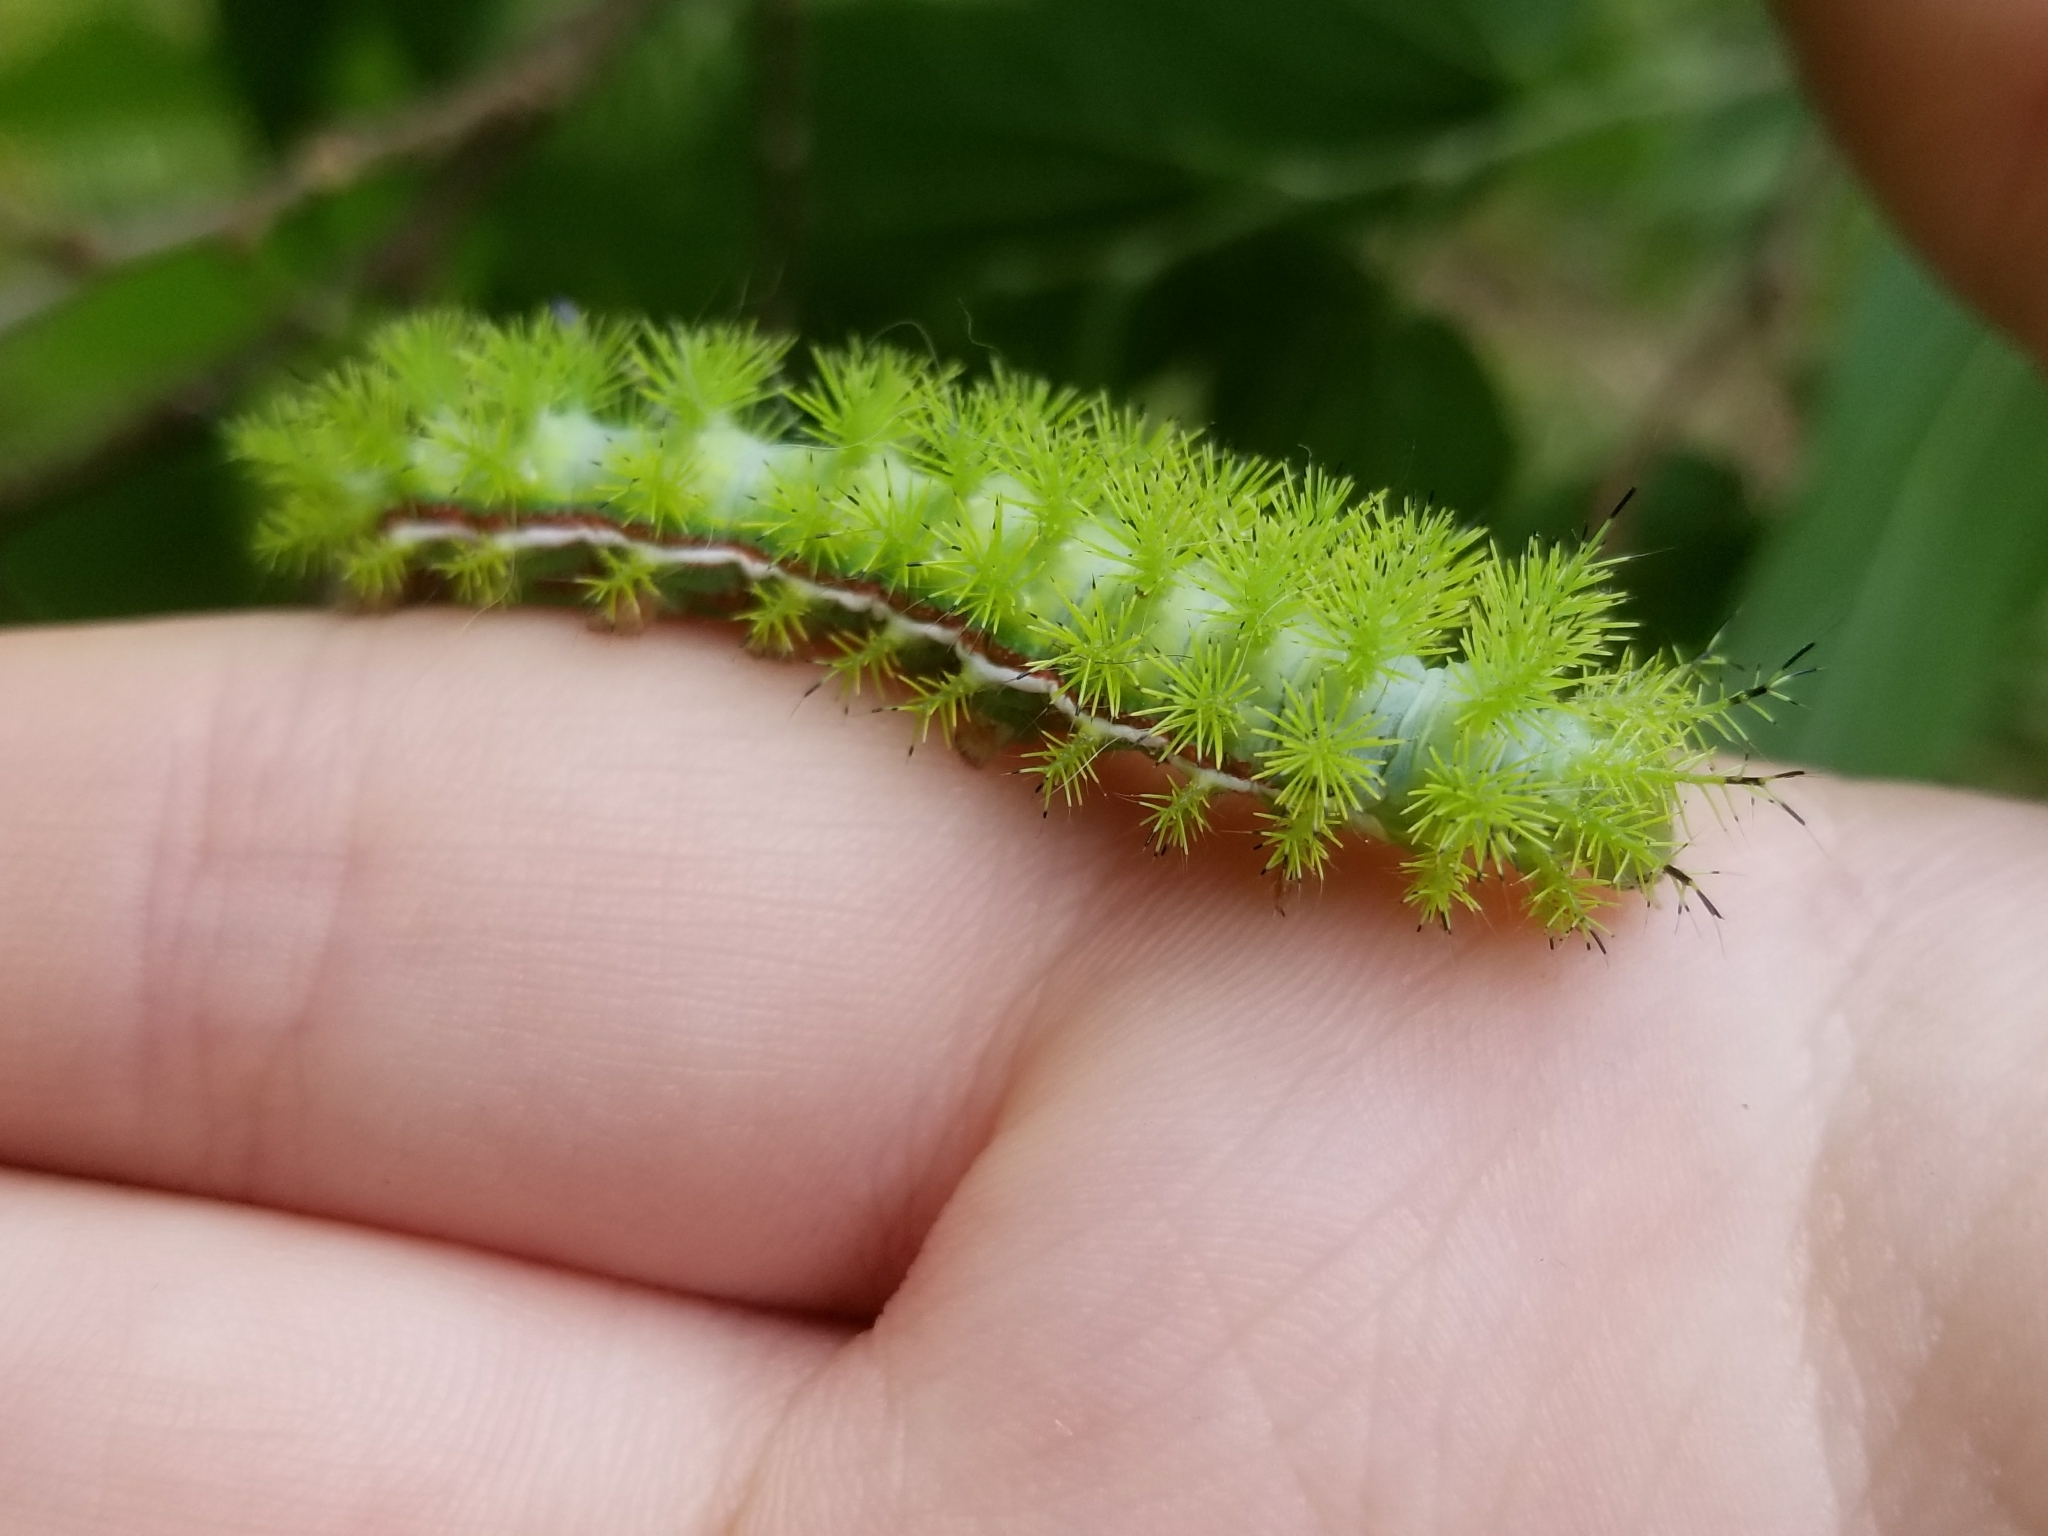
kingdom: Animalia
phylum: Arthropoda
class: Insecta
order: Lepidoptera
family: Saturniidae
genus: Automeris
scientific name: Automeris io
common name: Io moth
